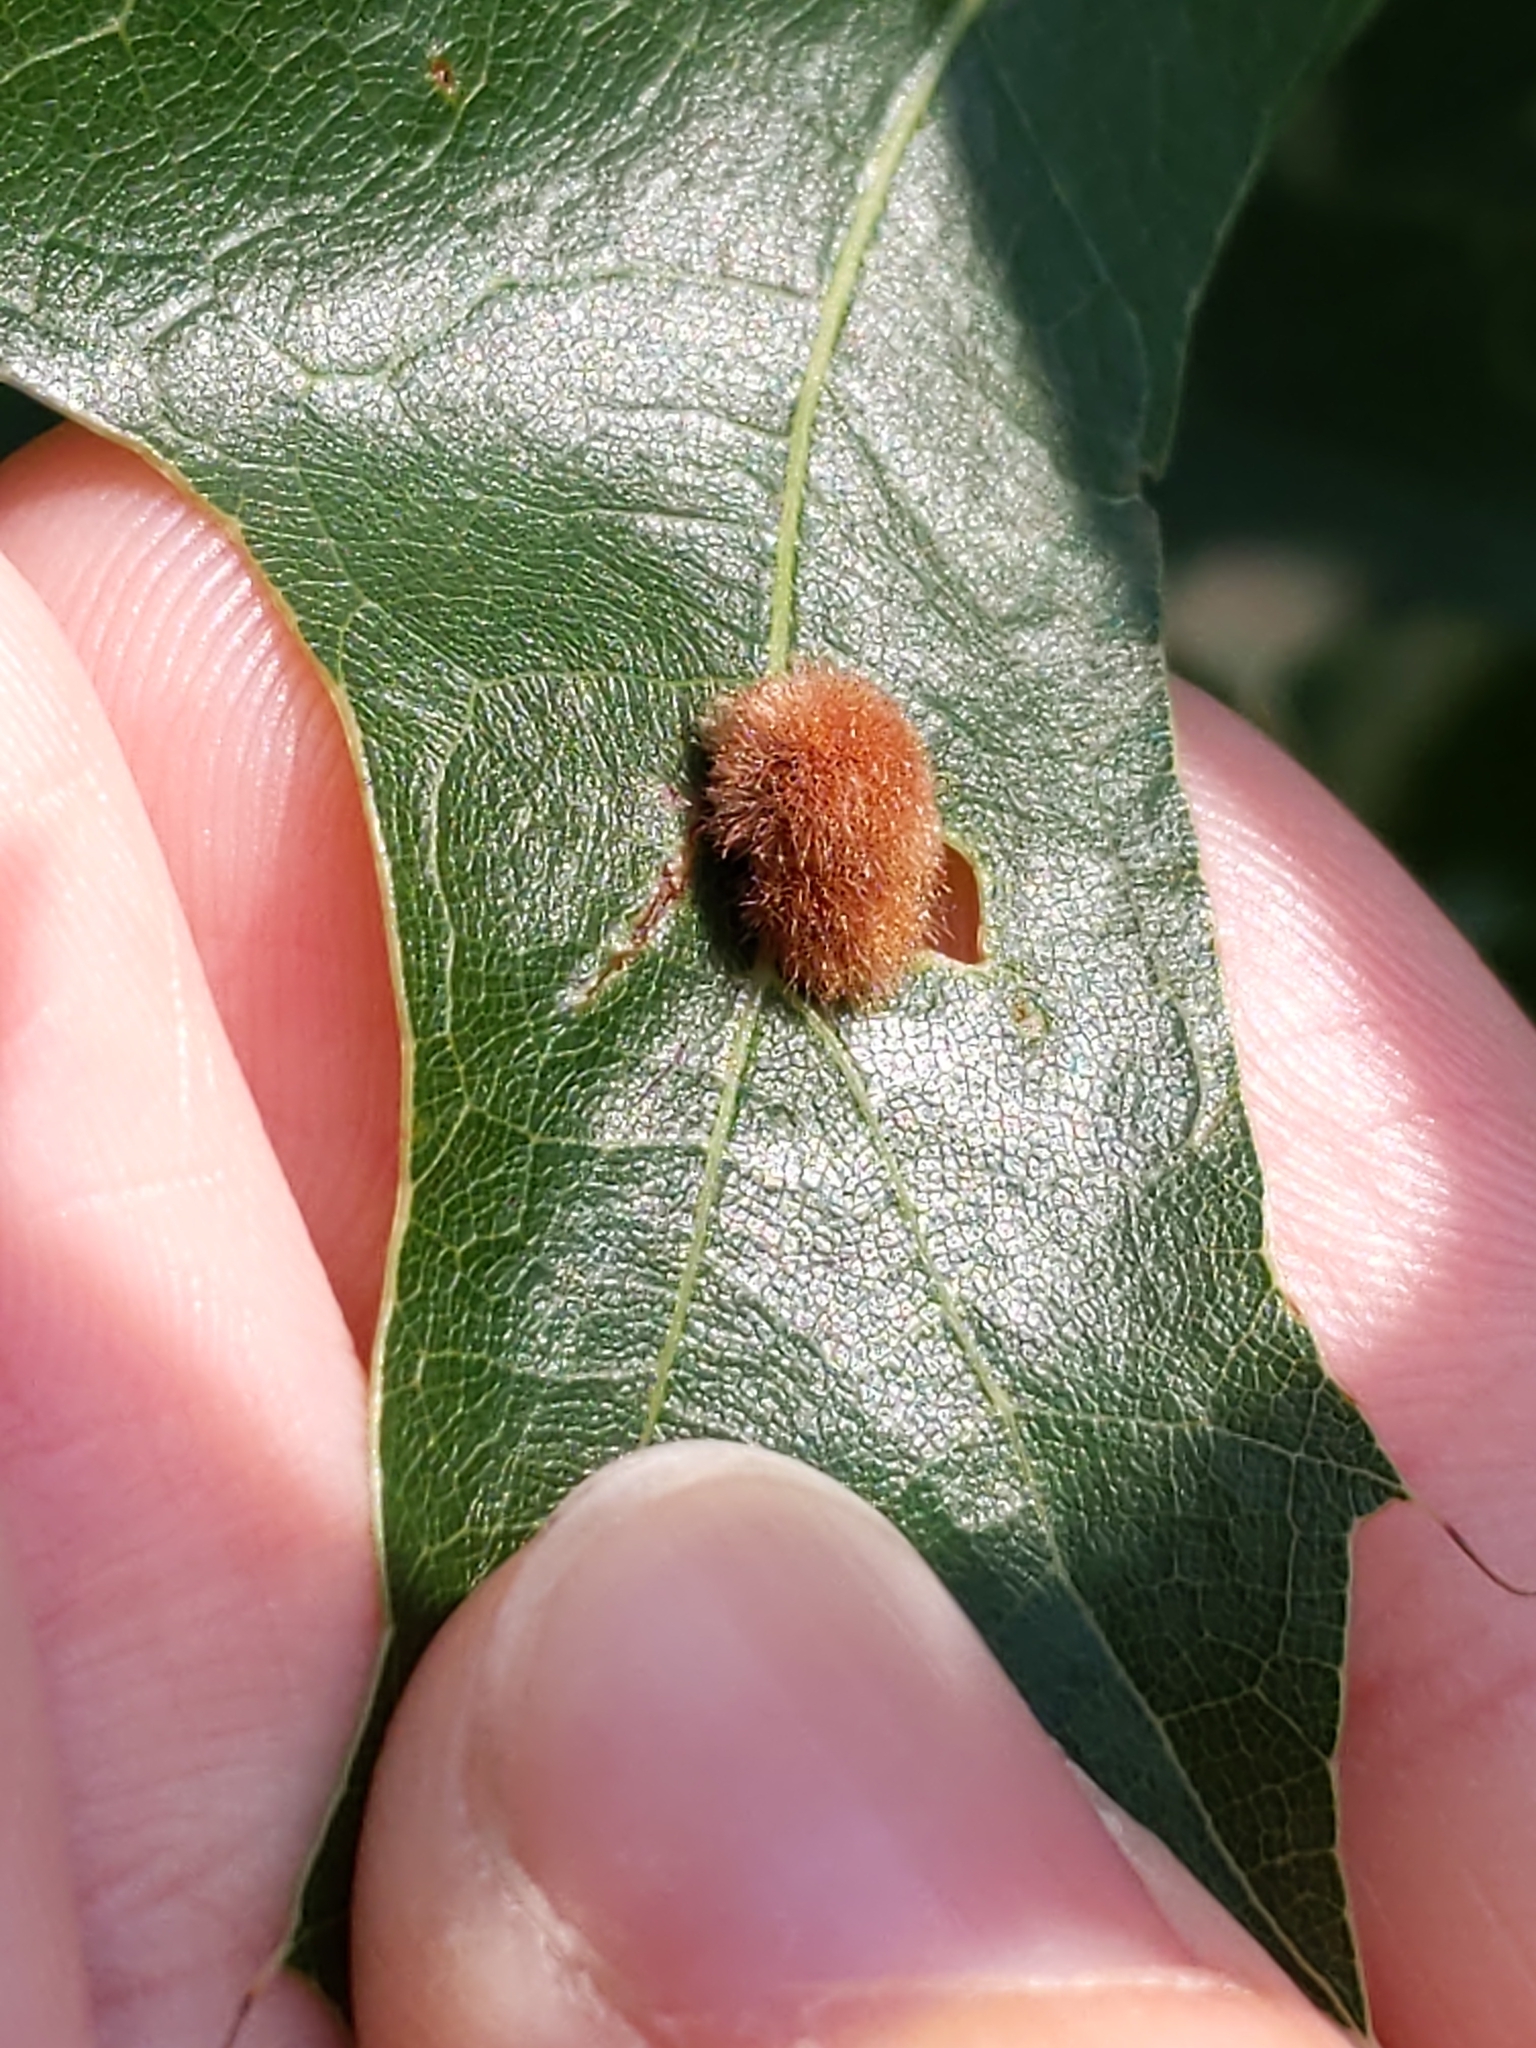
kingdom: Animalia
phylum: Arthropoda
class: Insecta
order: Hymenoptera
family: Cynipidae
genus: Callirhytis
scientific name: Callirhytis
